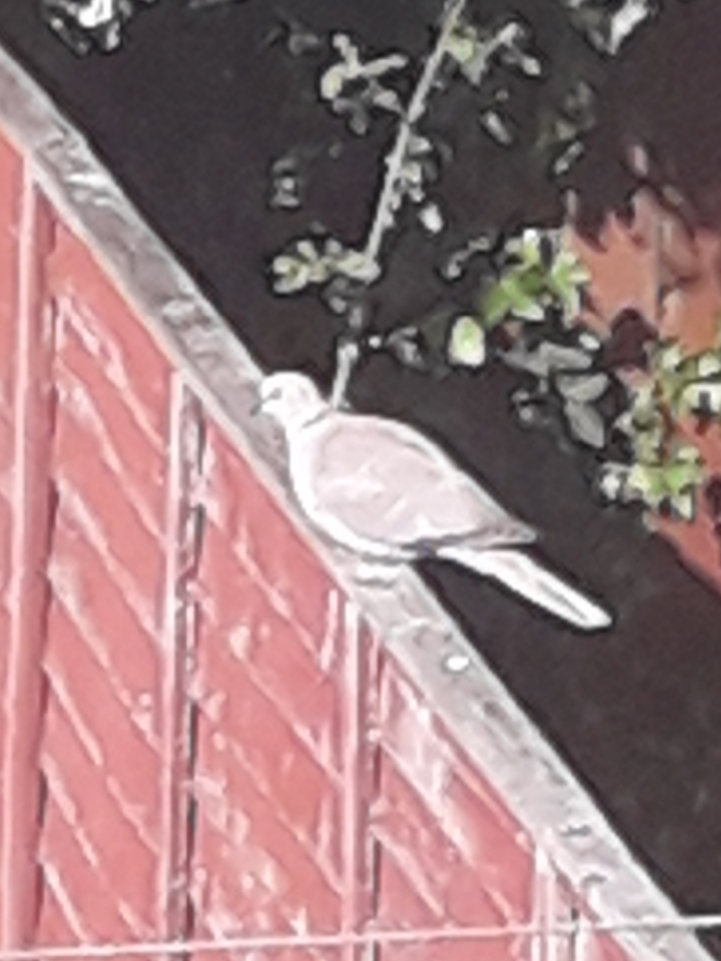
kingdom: Animalia
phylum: Chordata
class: Aves
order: Columbiformes
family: Columbidae
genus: Streptopelia
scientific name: Streptopelia decaocto
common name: Eurasian collared dove
